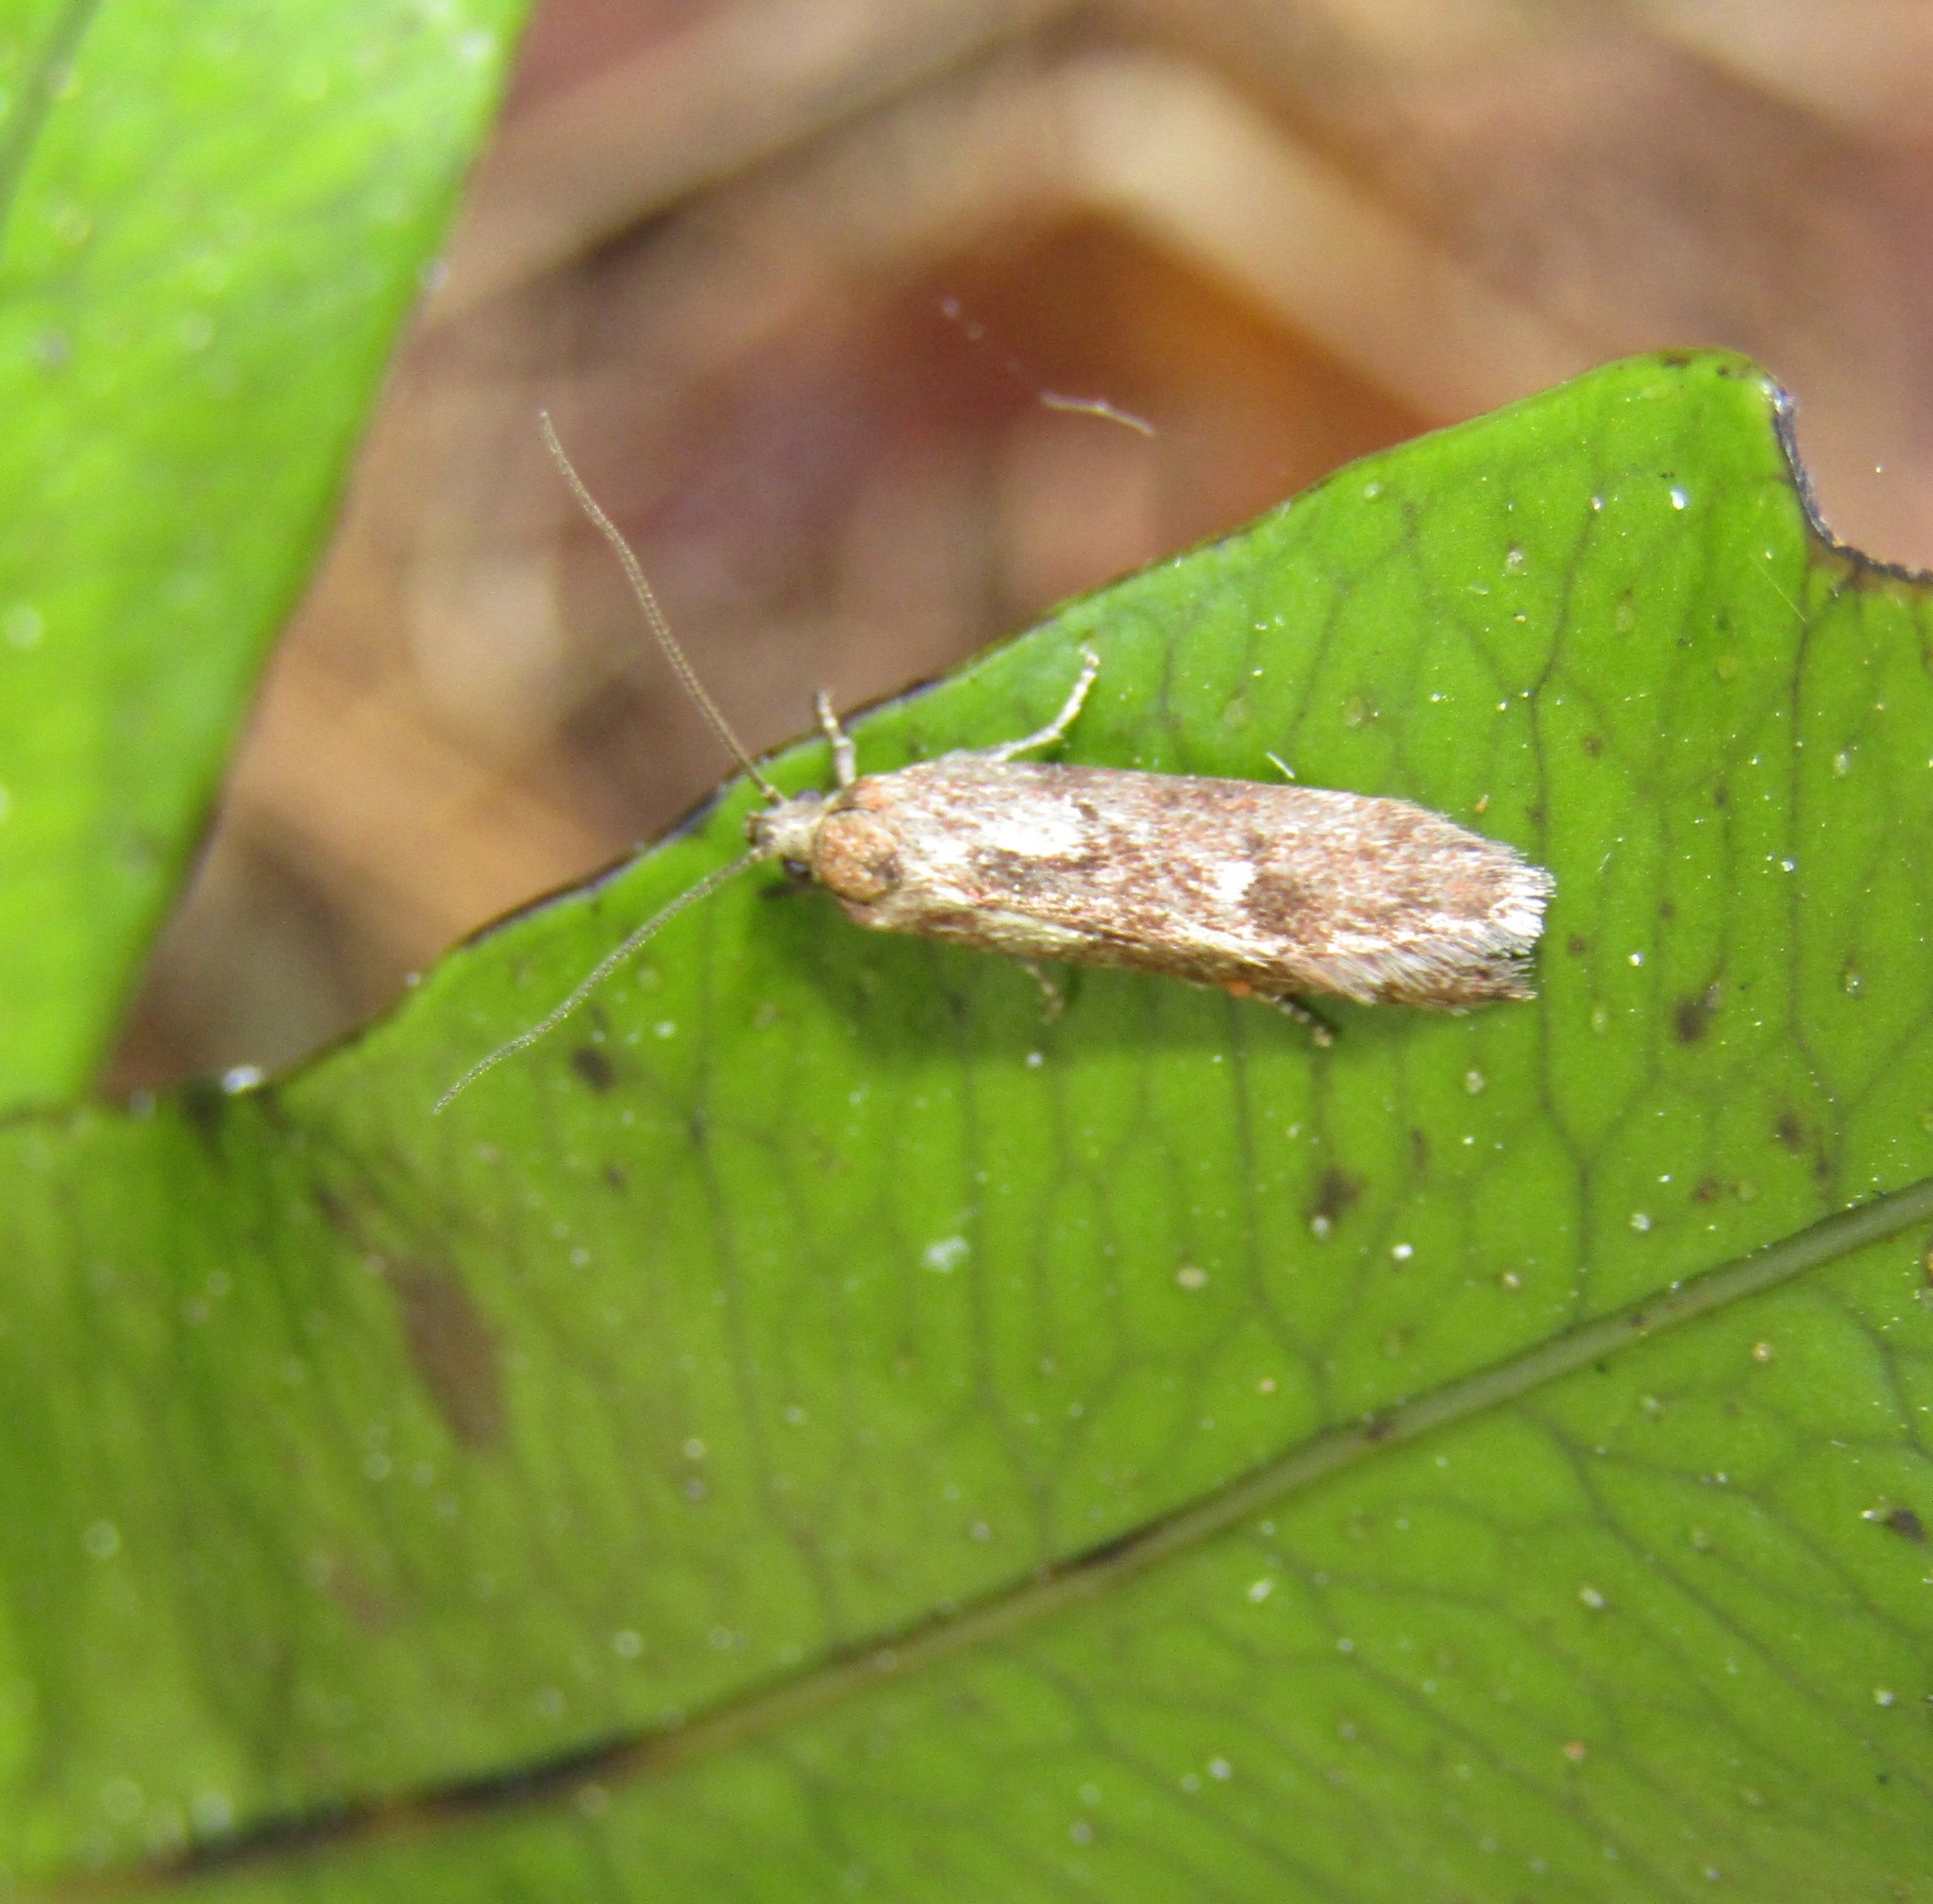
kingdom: Animalia
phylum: Arthropoda
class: Insecta
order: Lepidoptera
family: Oecophoridae
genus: Chersadaula
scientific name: Chersadaula ochrogastra
